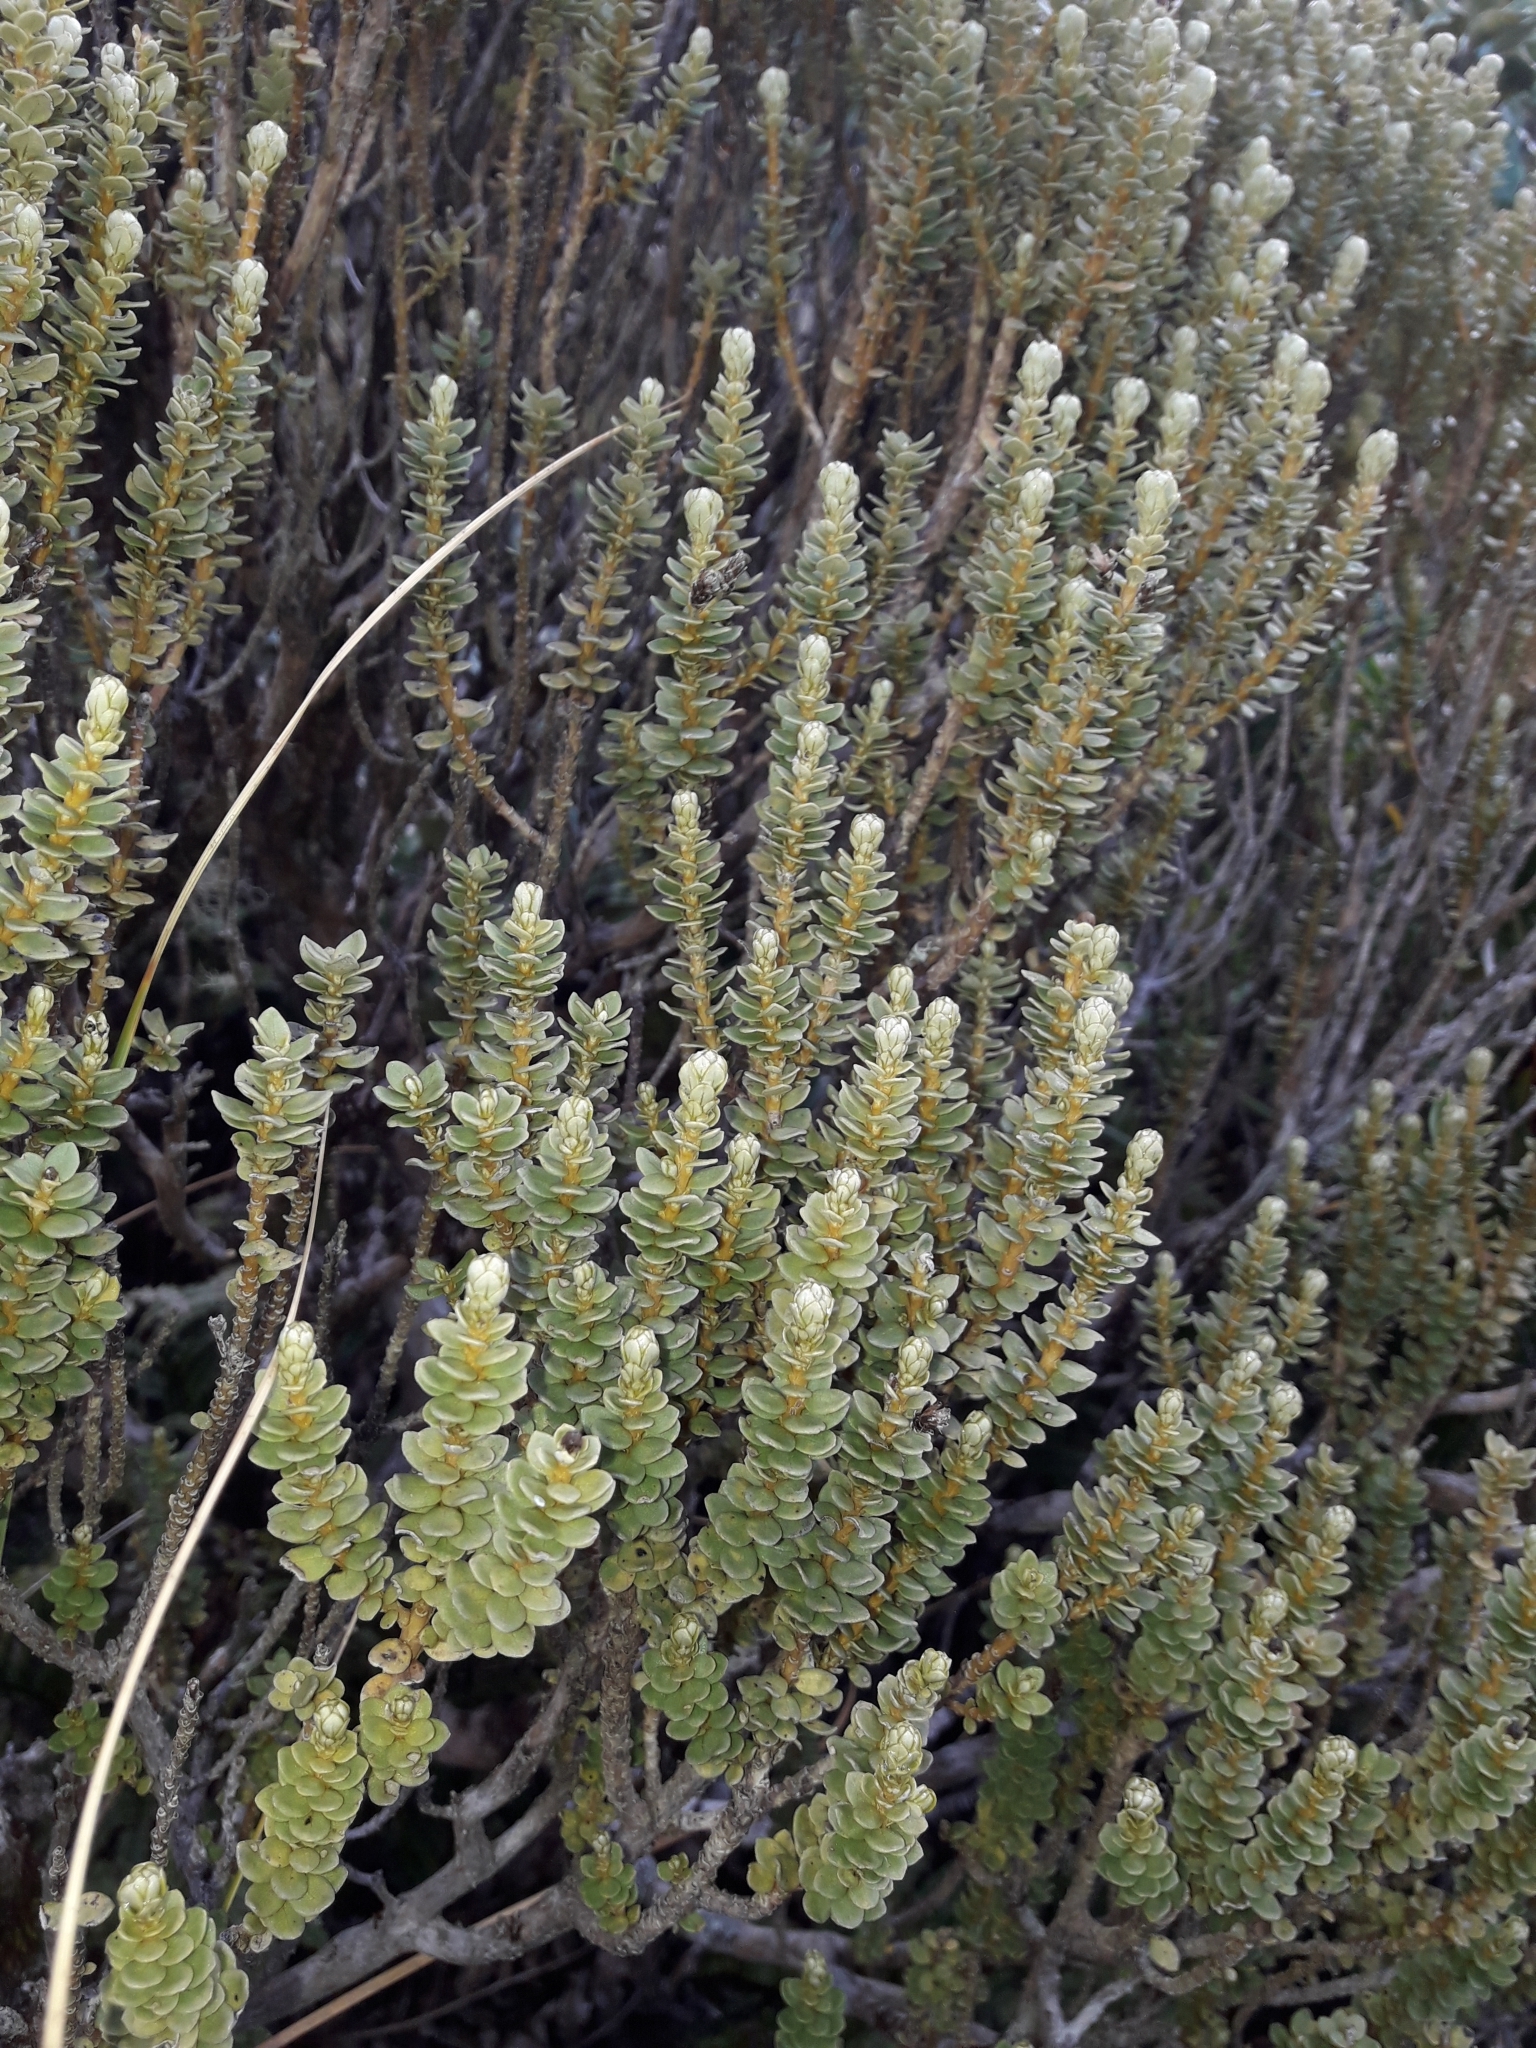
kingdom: Plantae
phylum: Tracheophyta
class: Magnoliopsida
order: Asterales
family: Asteraceae
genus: Olearia
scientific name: Olearia nummularifolia
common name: Sticky daisybush
